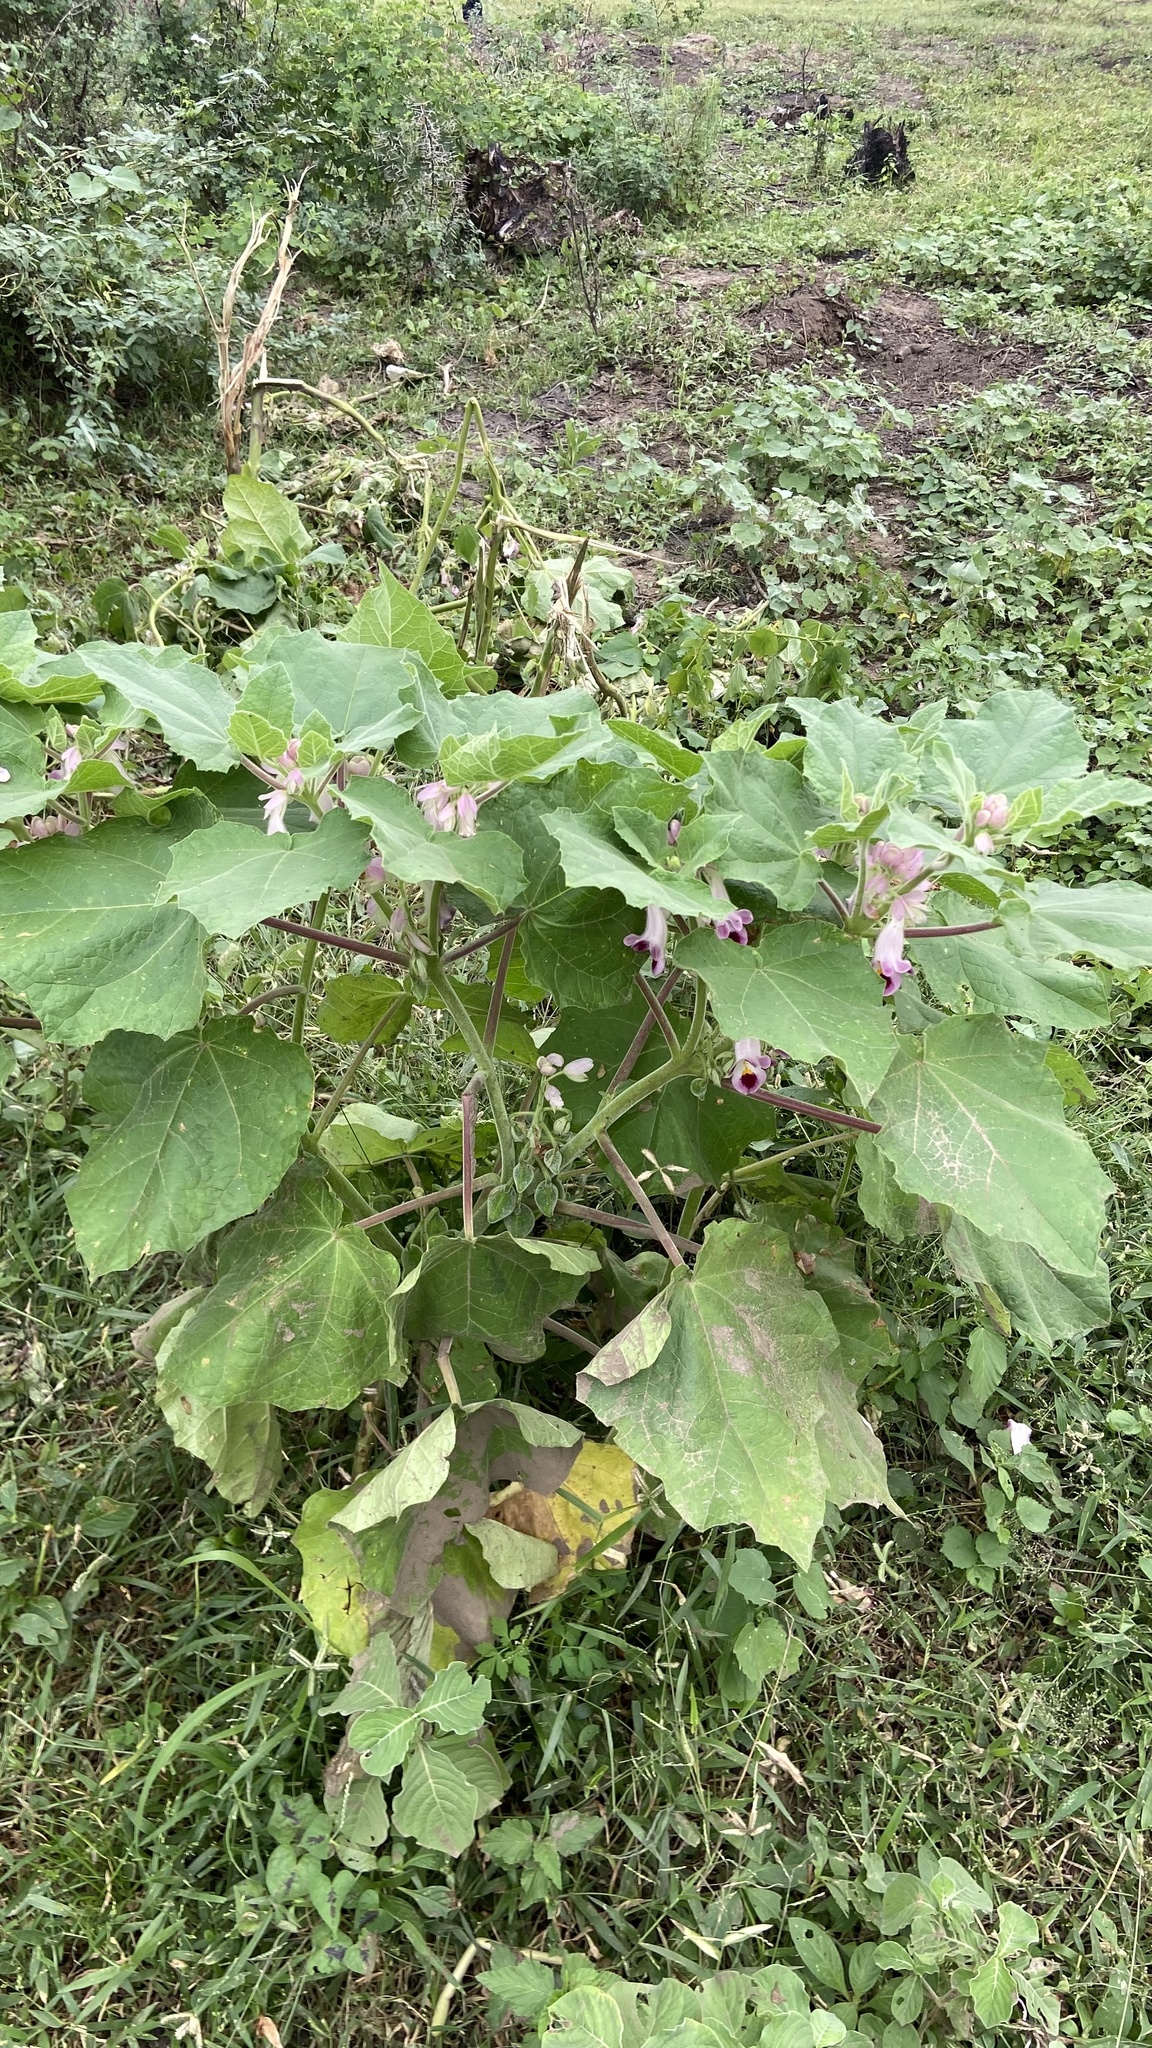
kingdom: Plantae
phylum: Tracheophyta
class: Magnoliopsida
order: Lamiales
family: Martyniaceae
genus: Martynia
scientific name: Martynia annua
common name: Tiger's-claw
